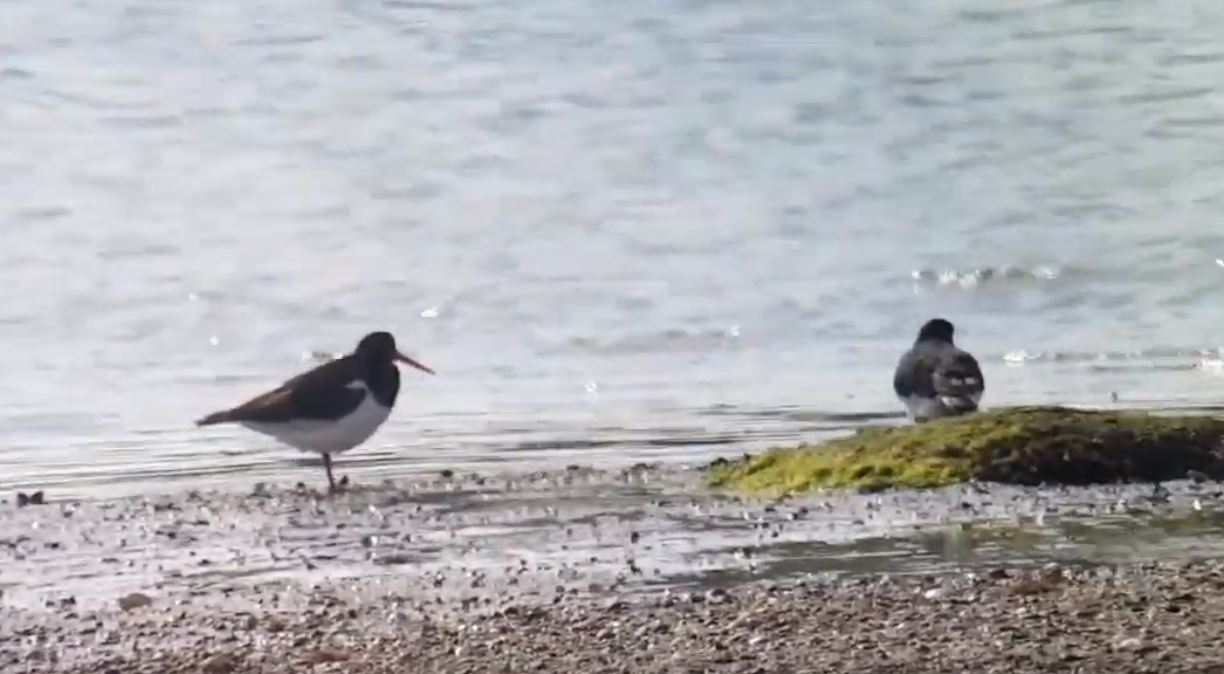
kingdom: Animalia
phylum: Chordata
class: Aves
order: Charadriiformes
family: Haematopodidae
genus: Haematopus
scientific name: Haematopus ostralegus
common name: Eurasian oystercatcher
